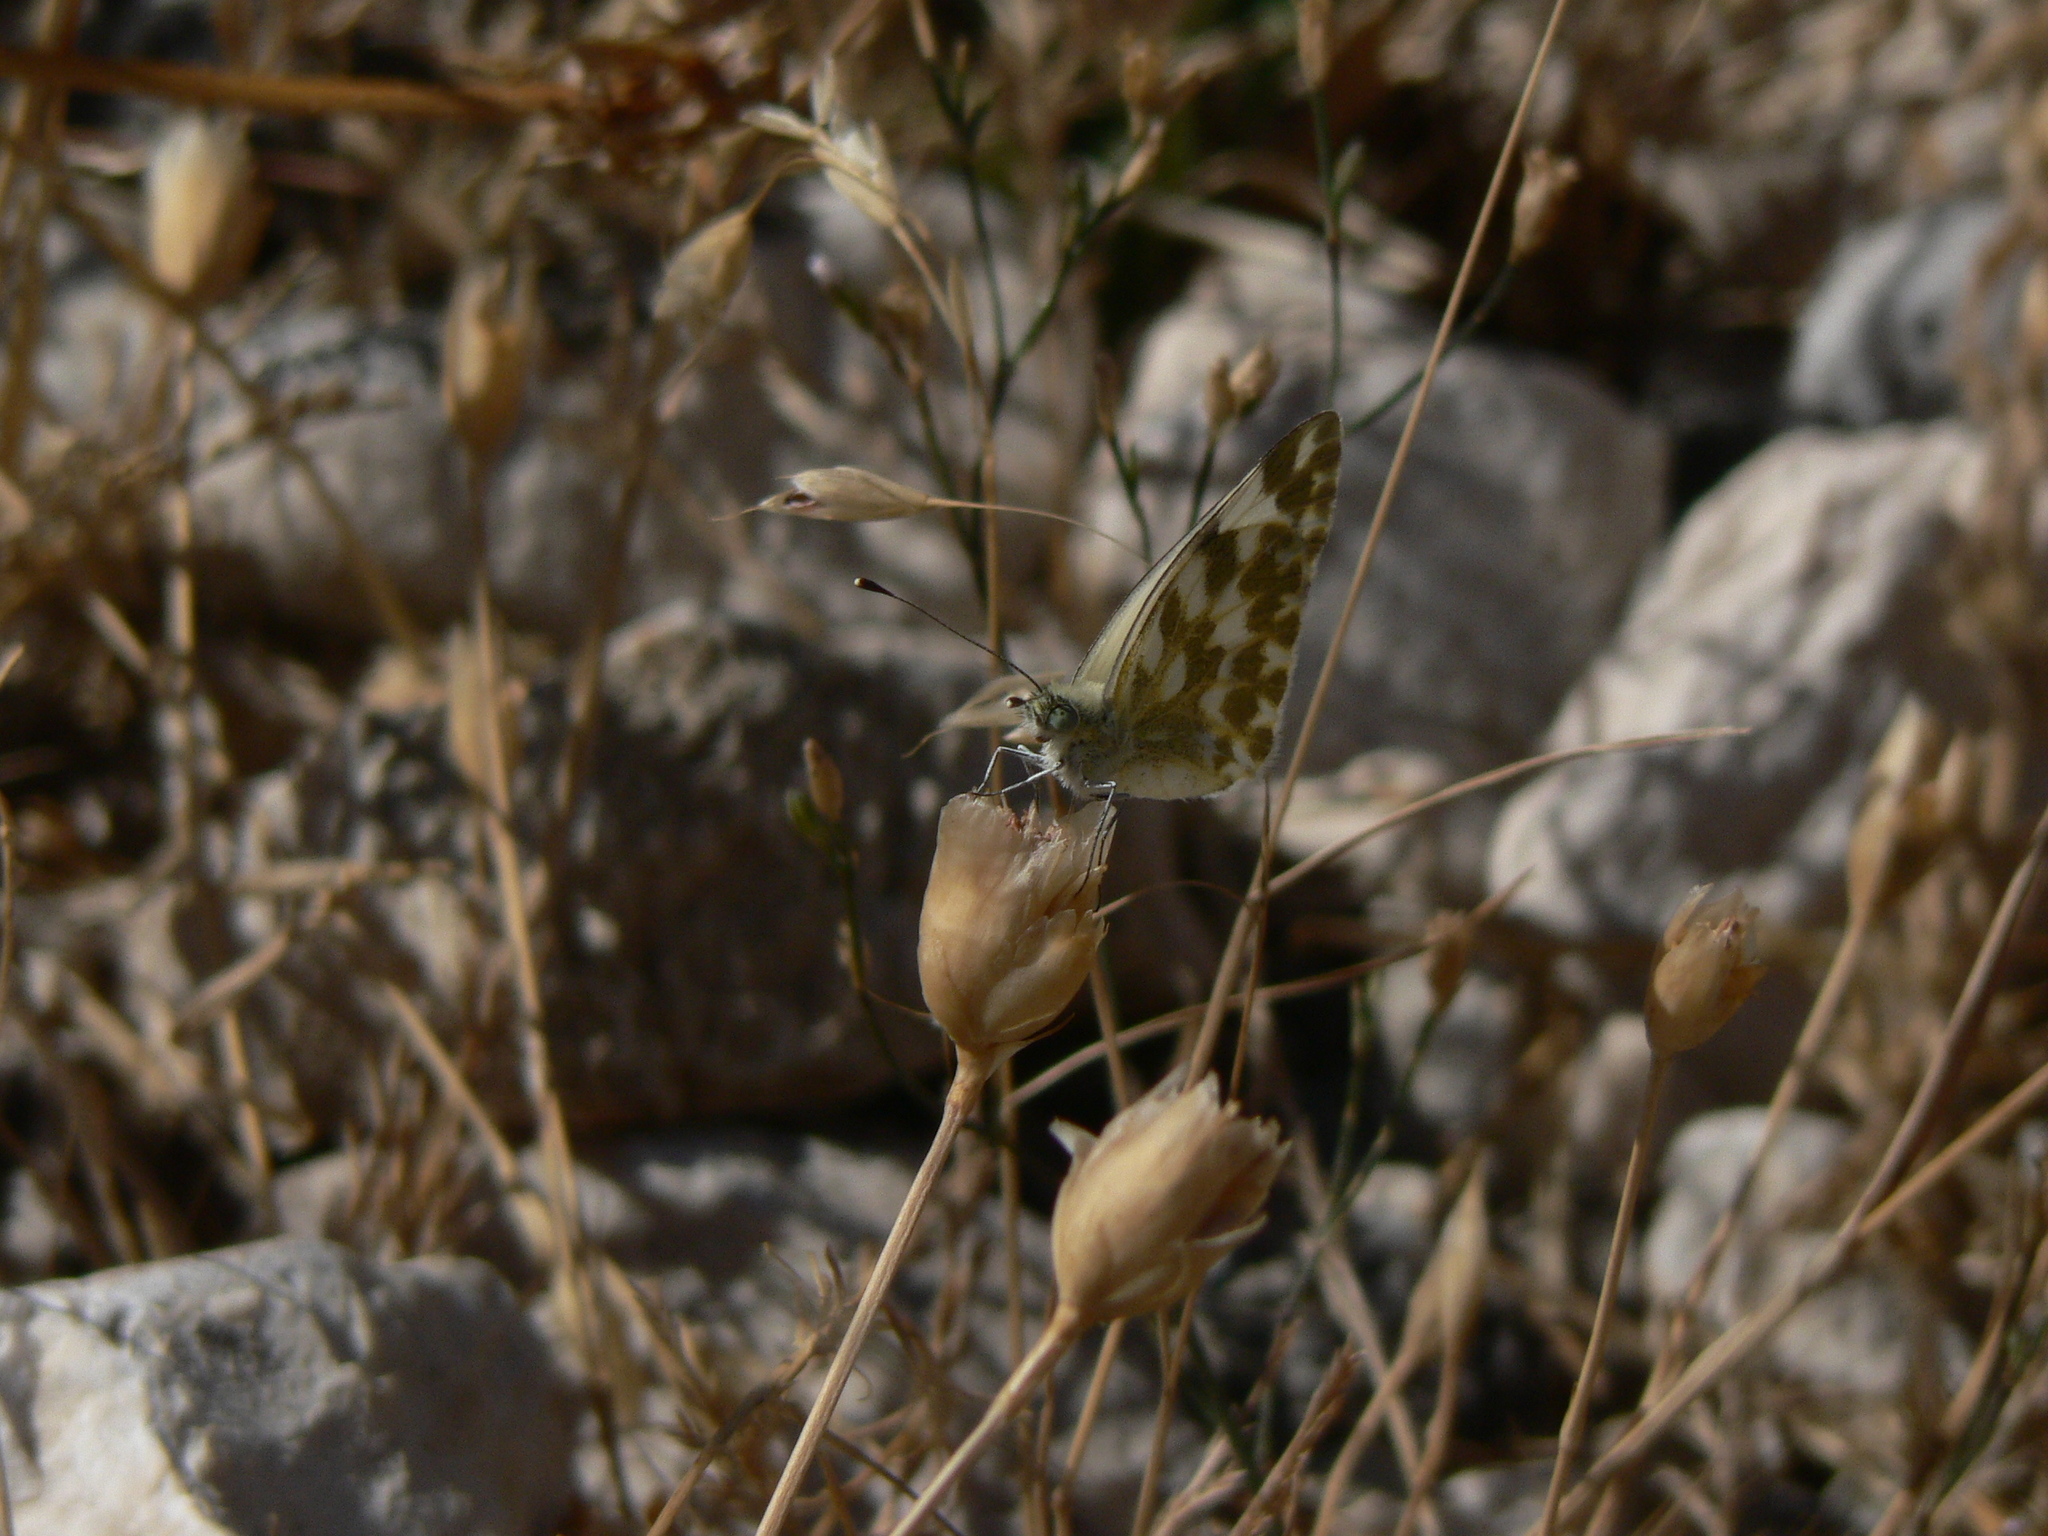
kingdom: Animalia
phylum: Arthropoda
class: Insecta
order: Lepidoptera
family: Pieridae
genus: Pontia
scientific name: Pontia daplidice
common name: Bath white
